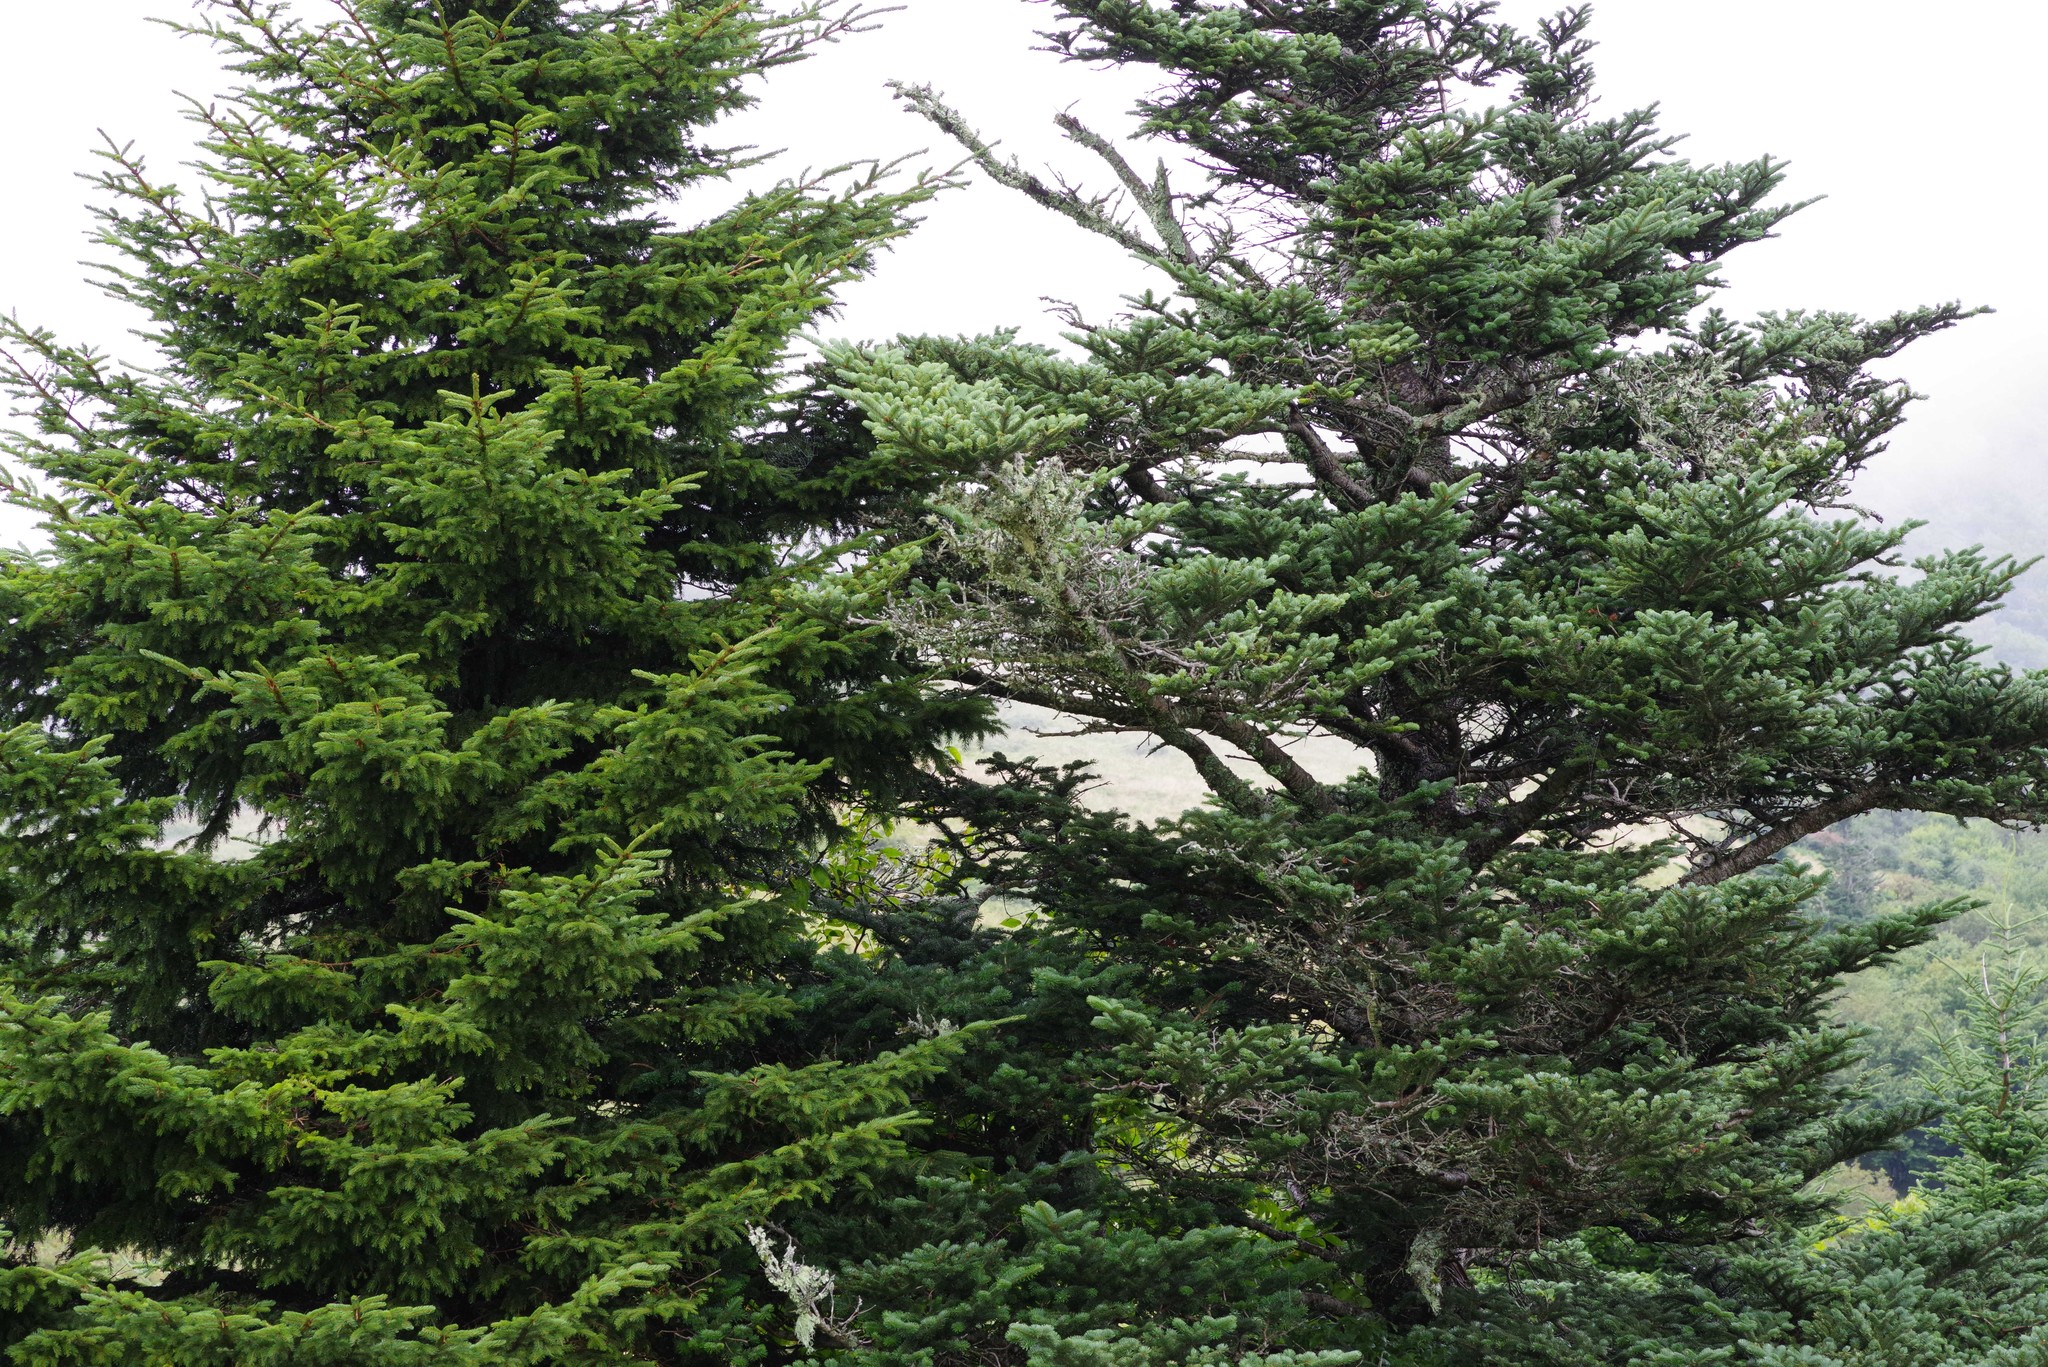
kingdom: Plantae
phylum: Tracheophyta
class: Pinopsida
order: Pinales
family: Pinaceae
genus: Picea
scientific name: Picea rubens
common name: Red spruce
